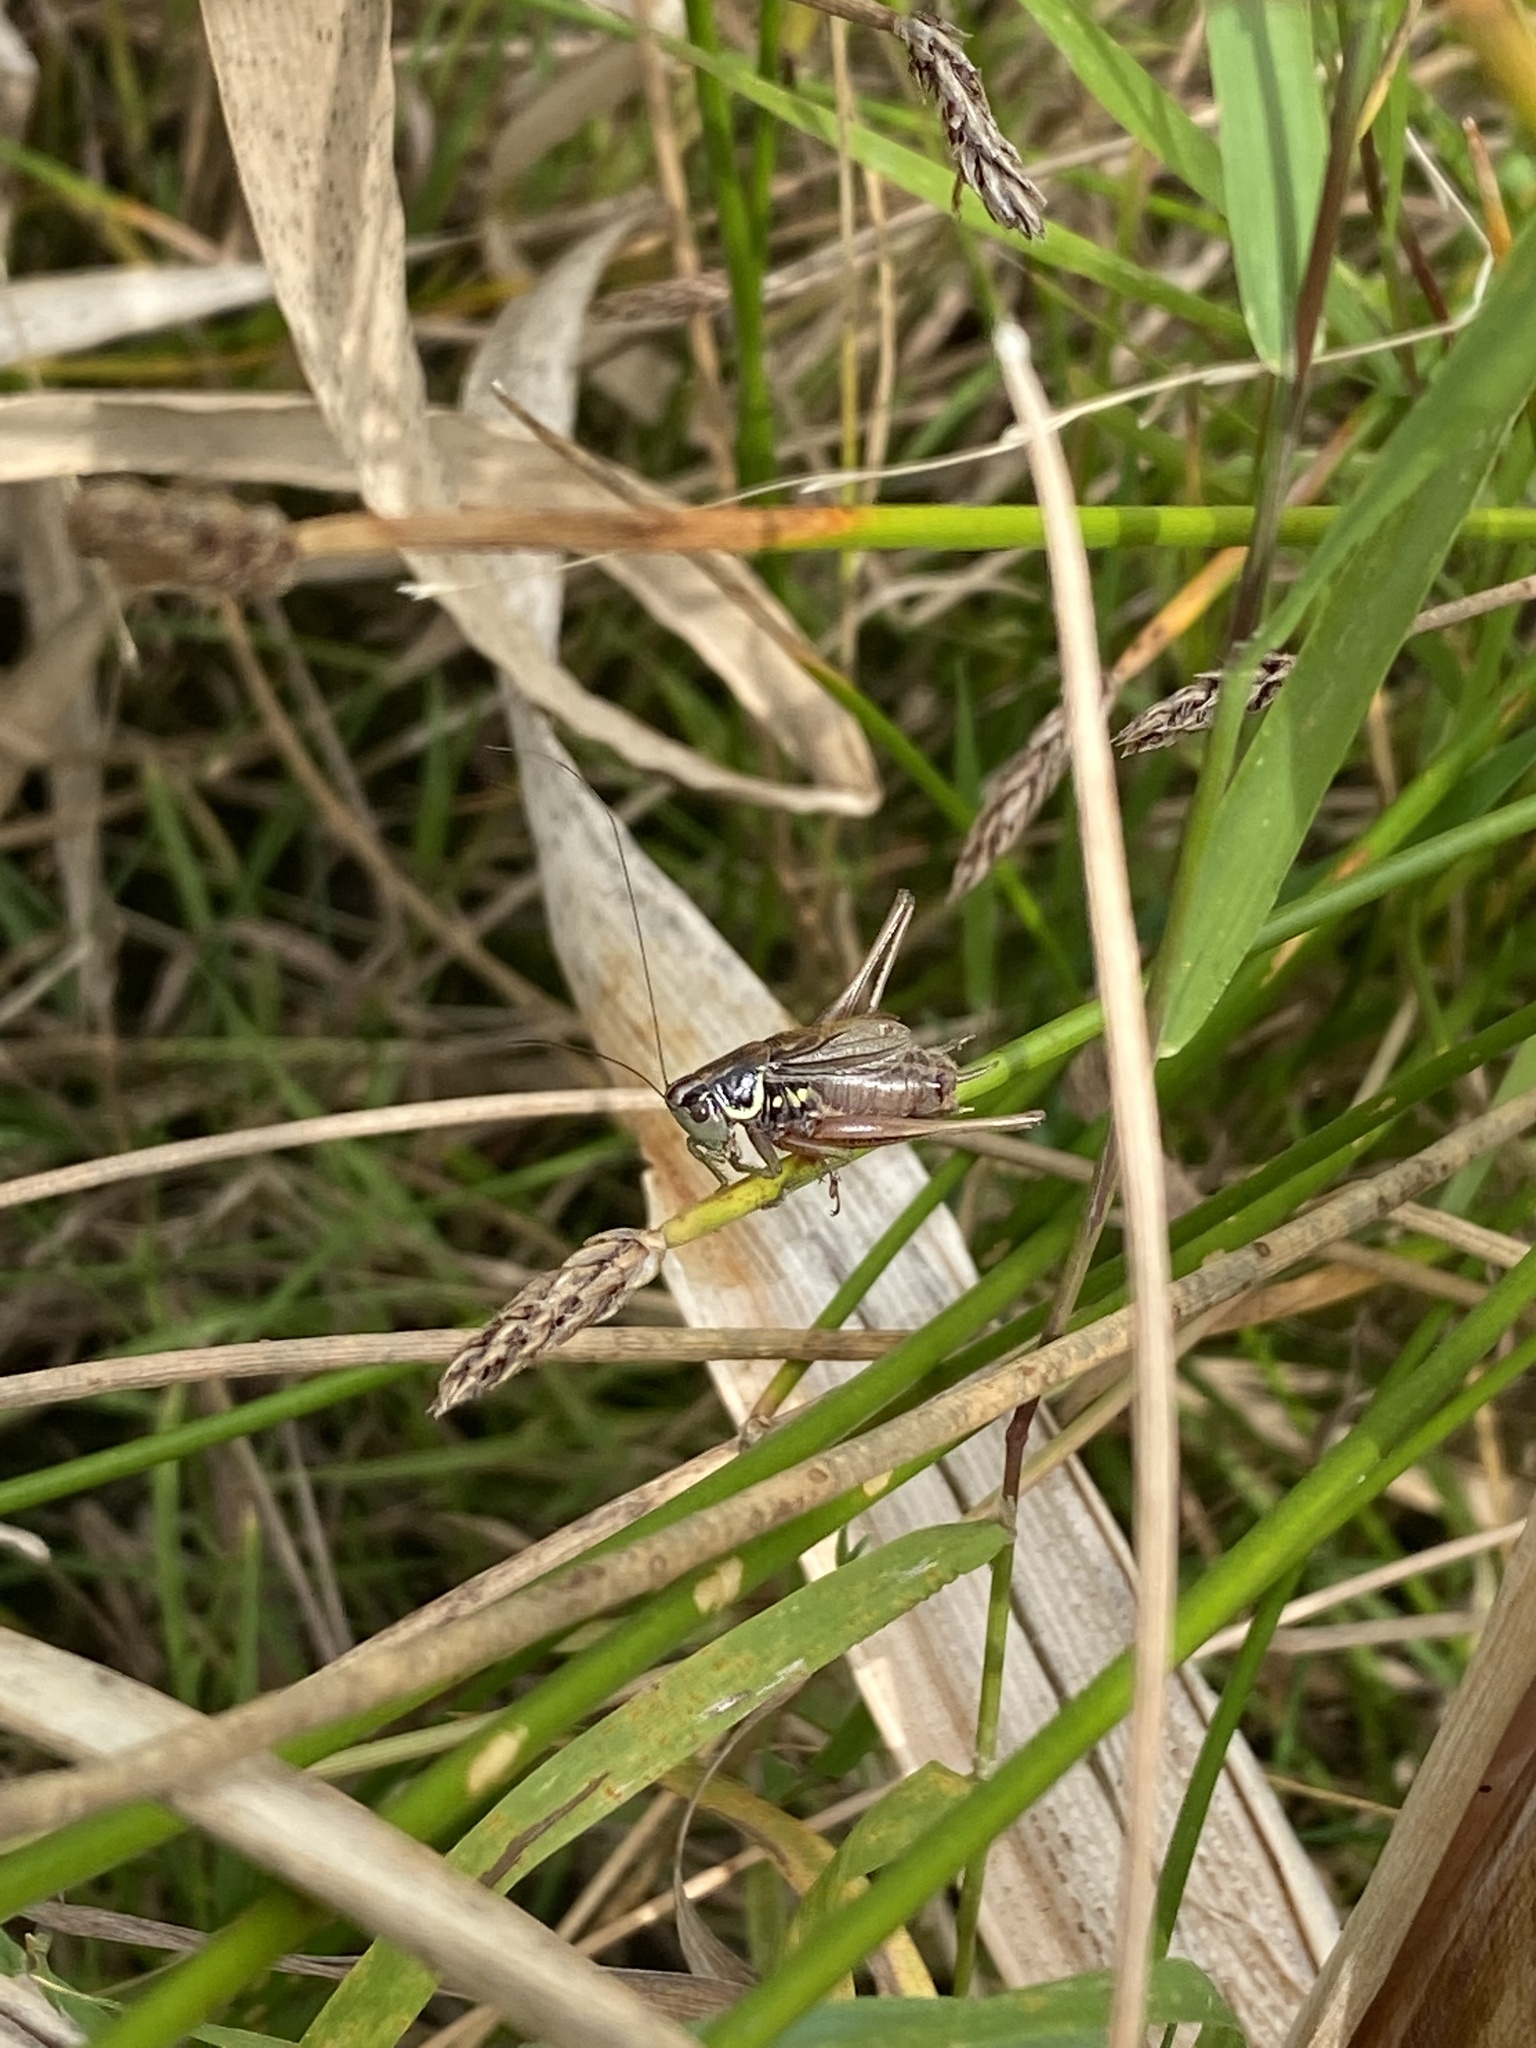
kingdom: Animalia
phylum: Arthropoda
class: Insecta
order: Orthoptera
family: Tettigoniidae
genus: Roeseliana
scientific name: Roeseliana roeselii
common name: Roesel's bush cricket
